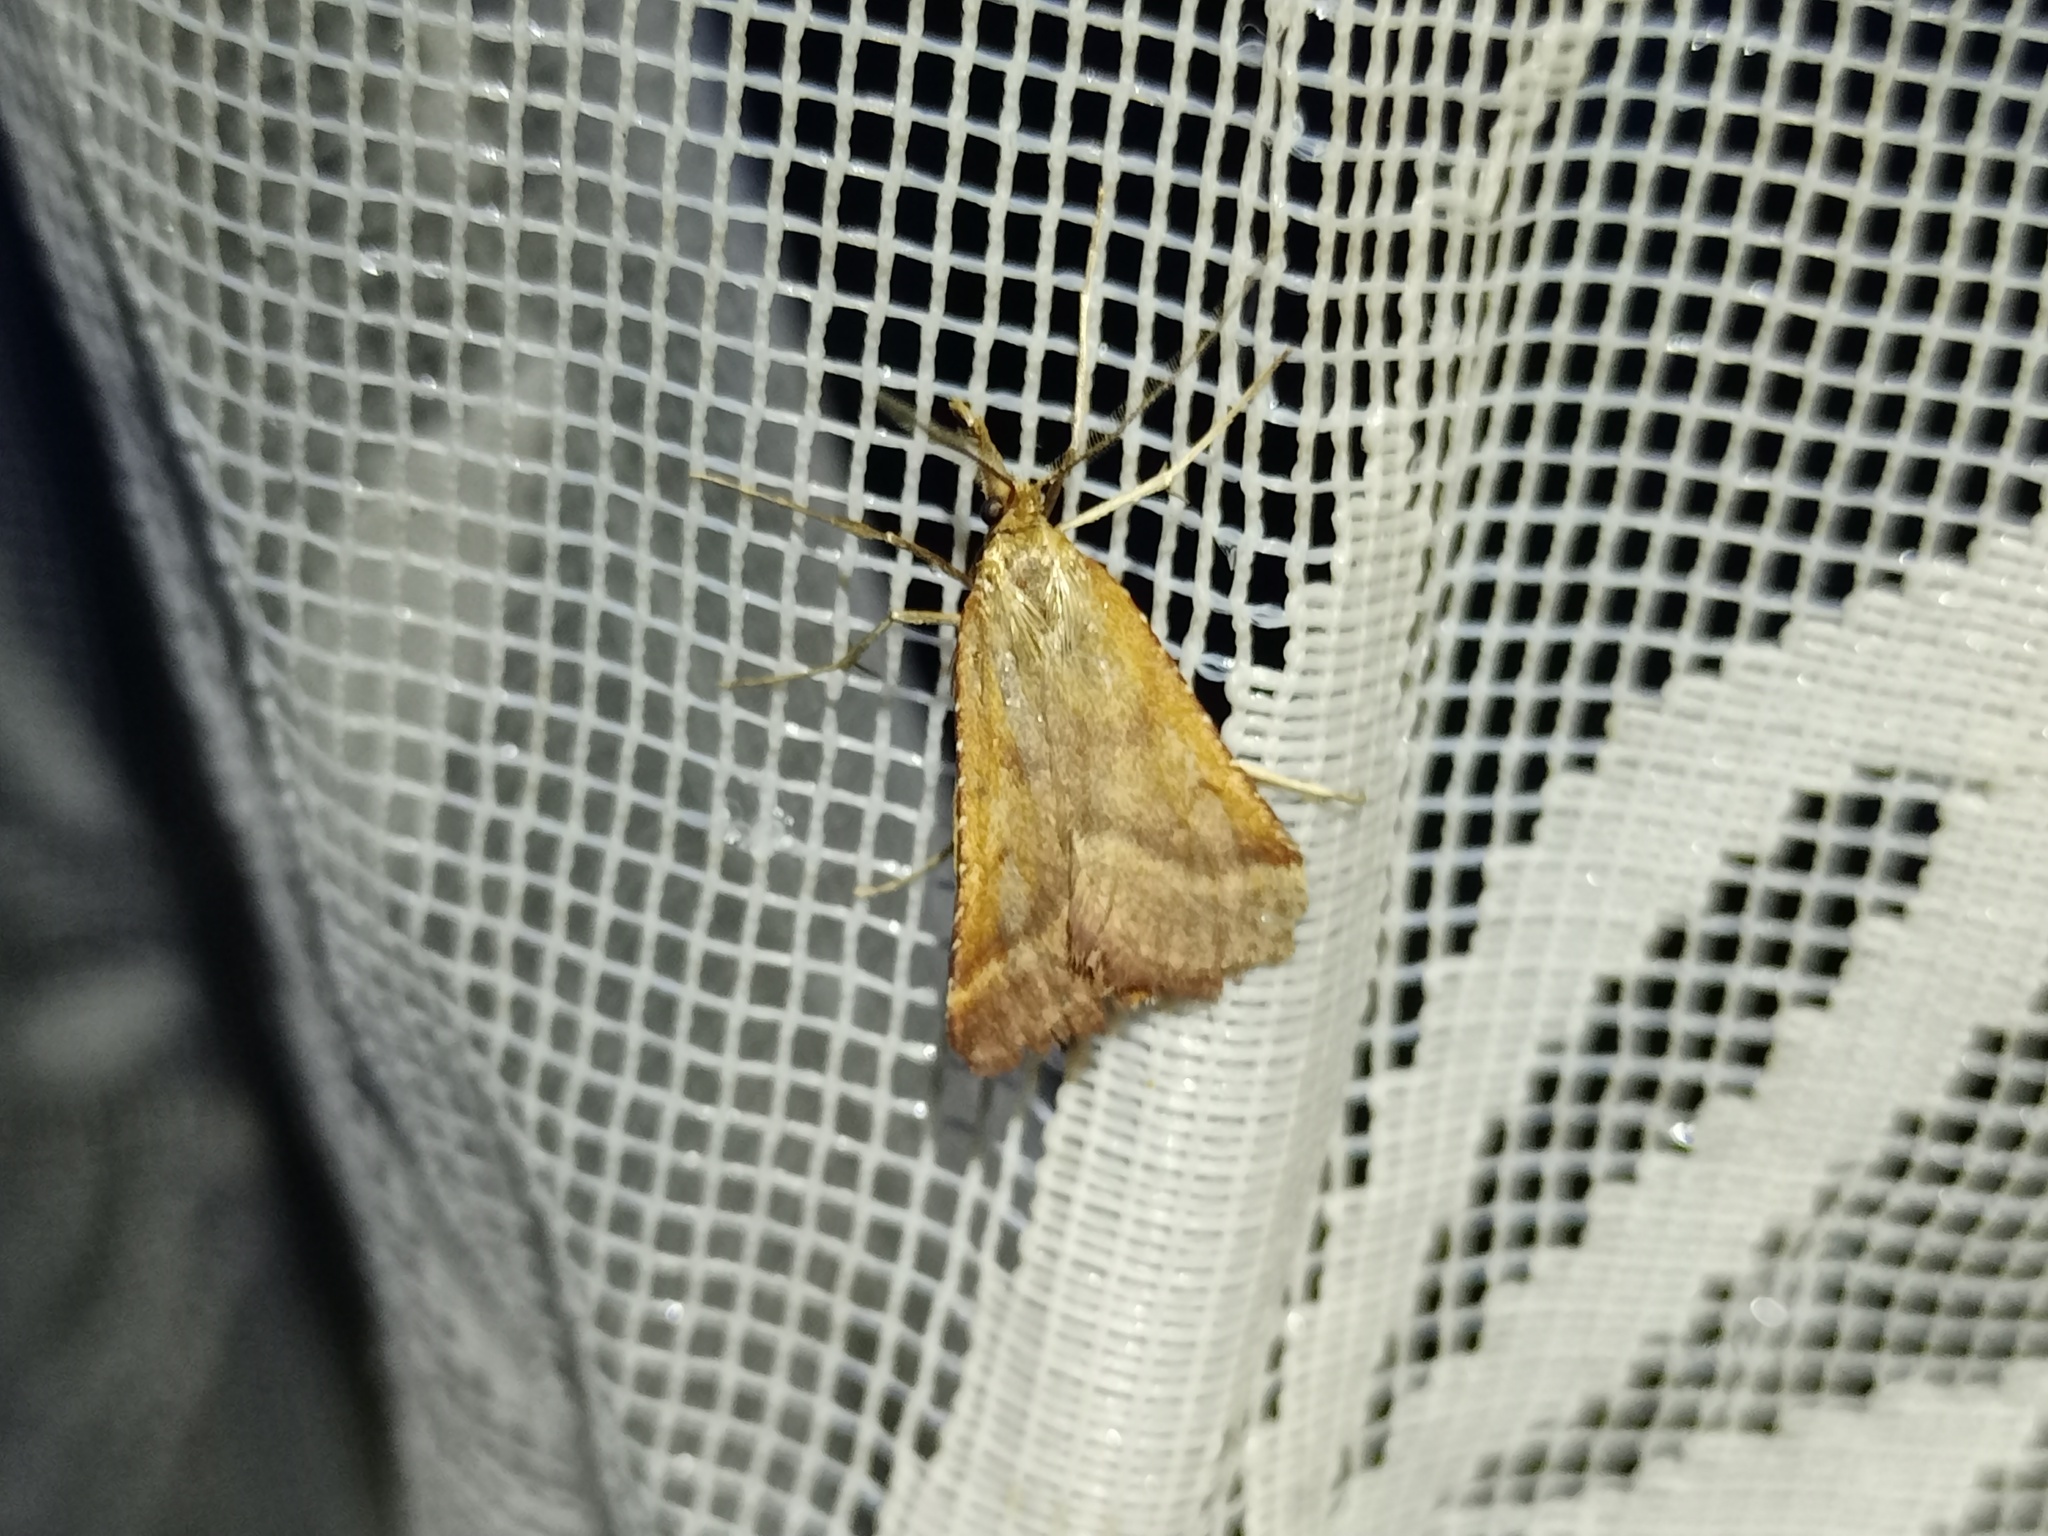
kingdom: Animalia
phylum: Arthropoda
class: Insecta
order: Lepidoptera
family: Pyralidae
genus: Synaphe
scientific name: Synaphe punctalis
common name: Long-legged tabby
